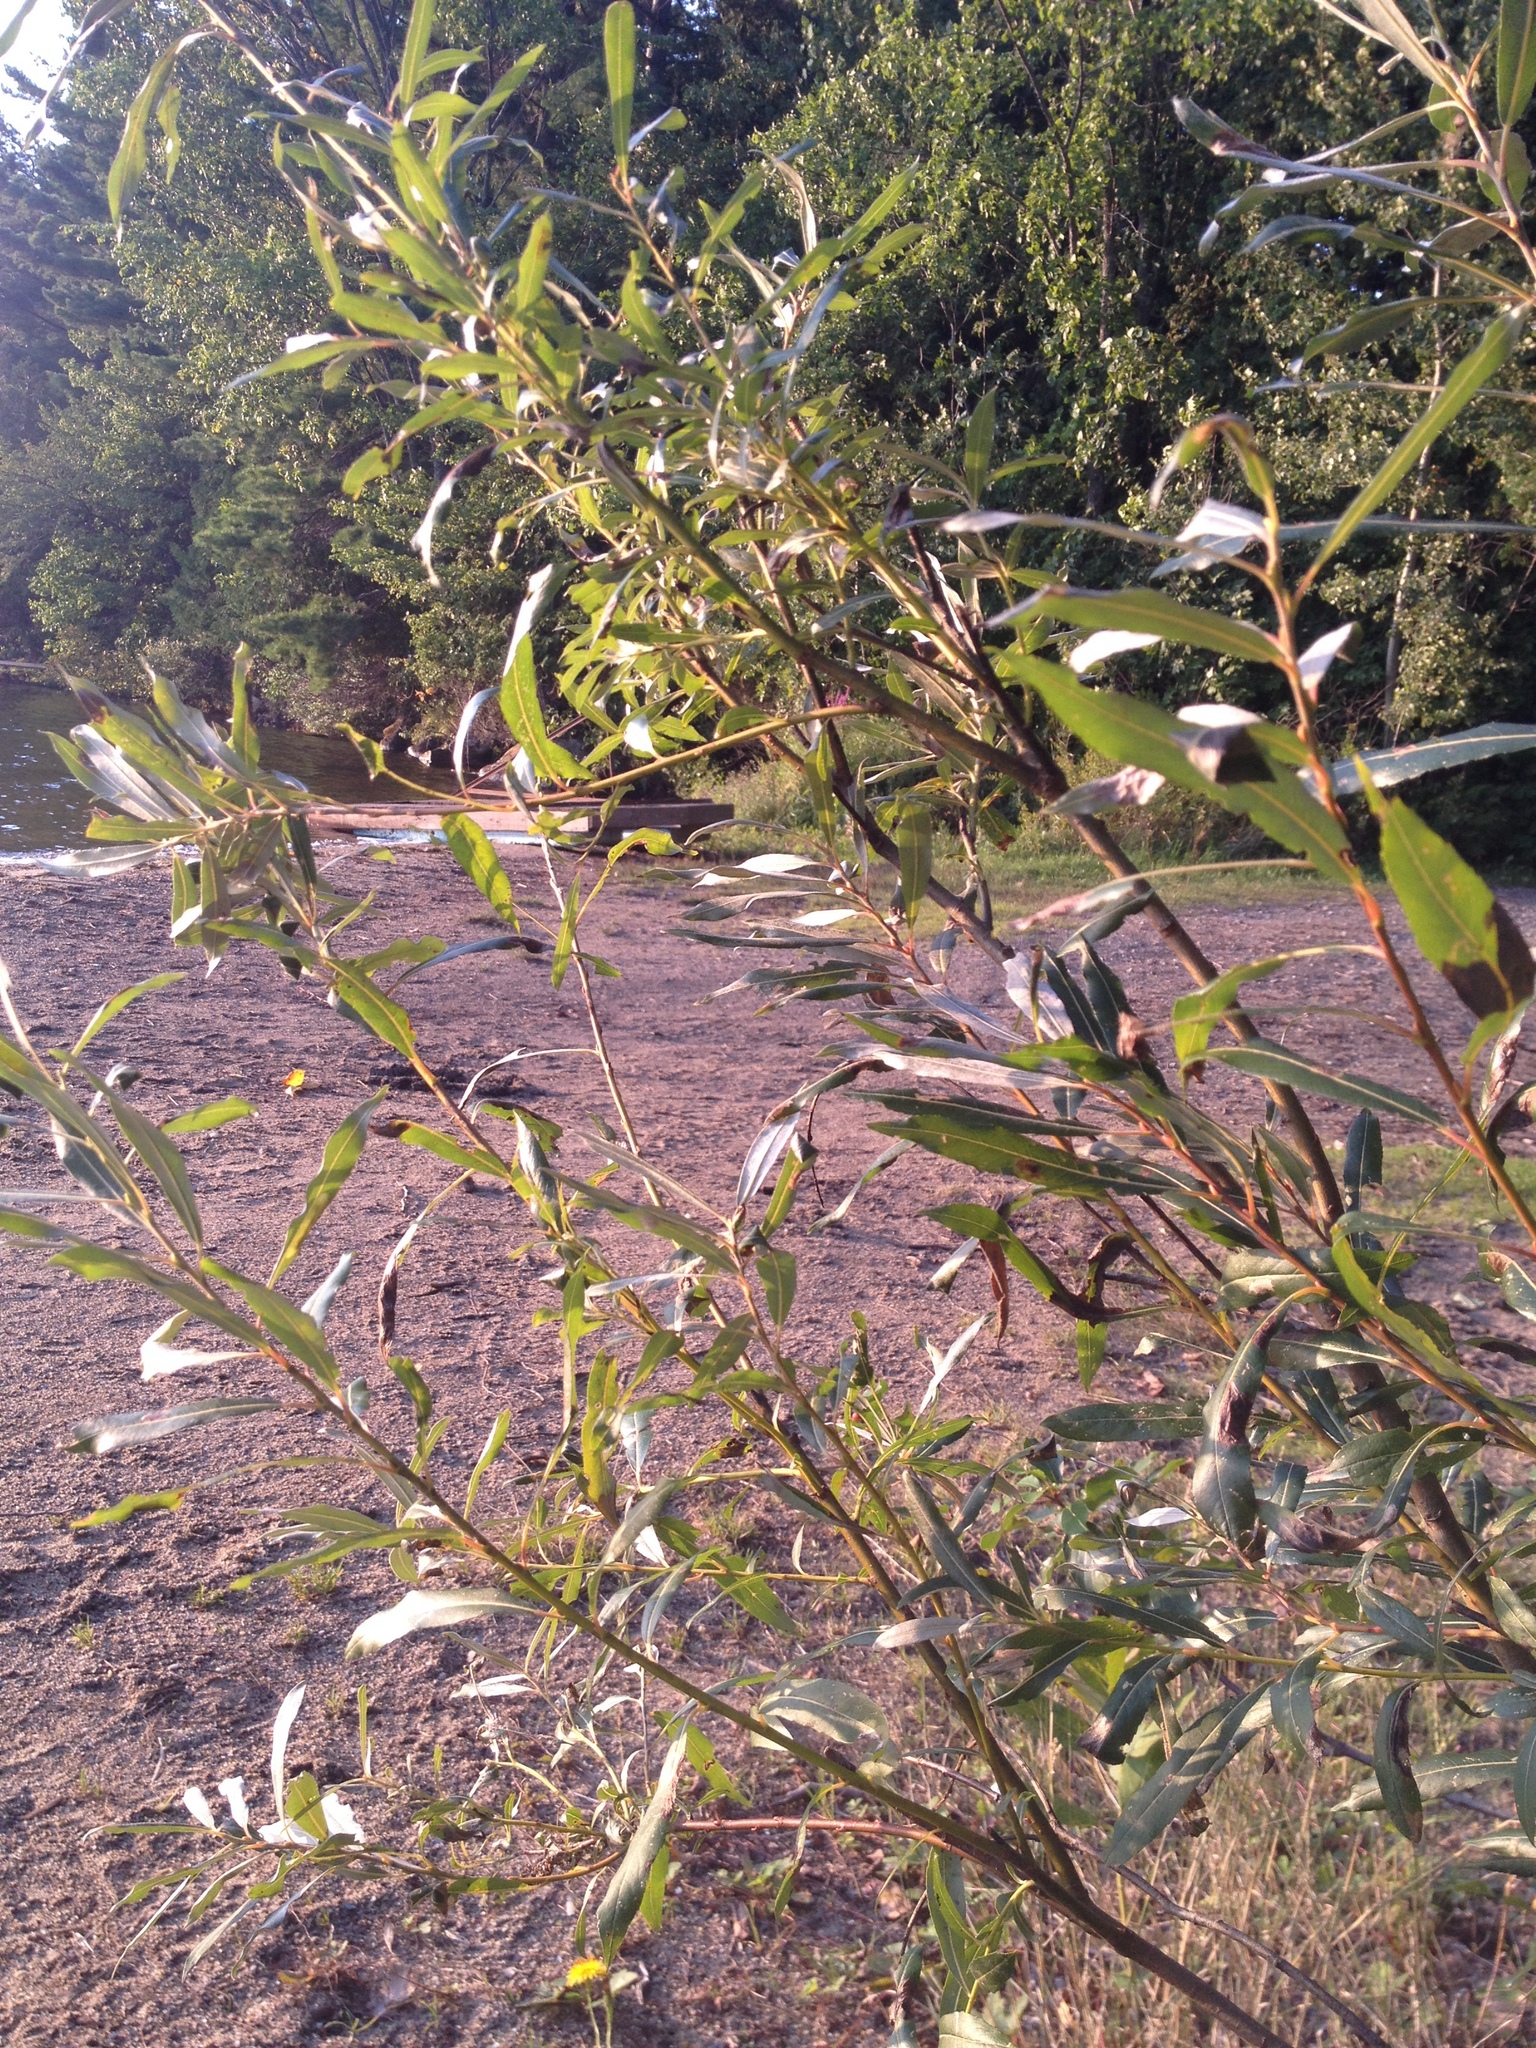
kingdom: Plantae
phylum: Tracheophyta
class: Magnoliopsida
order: Malpighiales
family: Salicaceae
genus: Salix
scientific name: Salix pellita
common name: Satiny willow
